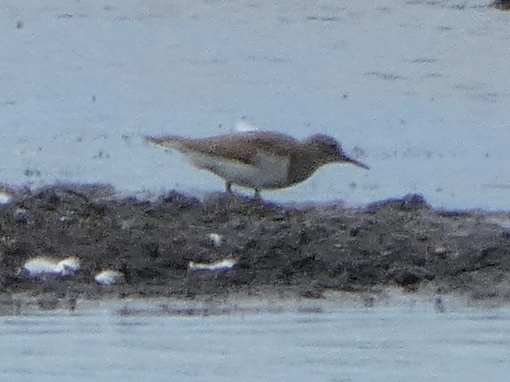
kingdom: Animalia
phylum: Chordata
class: Aves
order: Charadriiformes
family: Scolopacidae
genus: Actitis
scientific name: Actitis hypoleucos
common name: Common sandpiper
